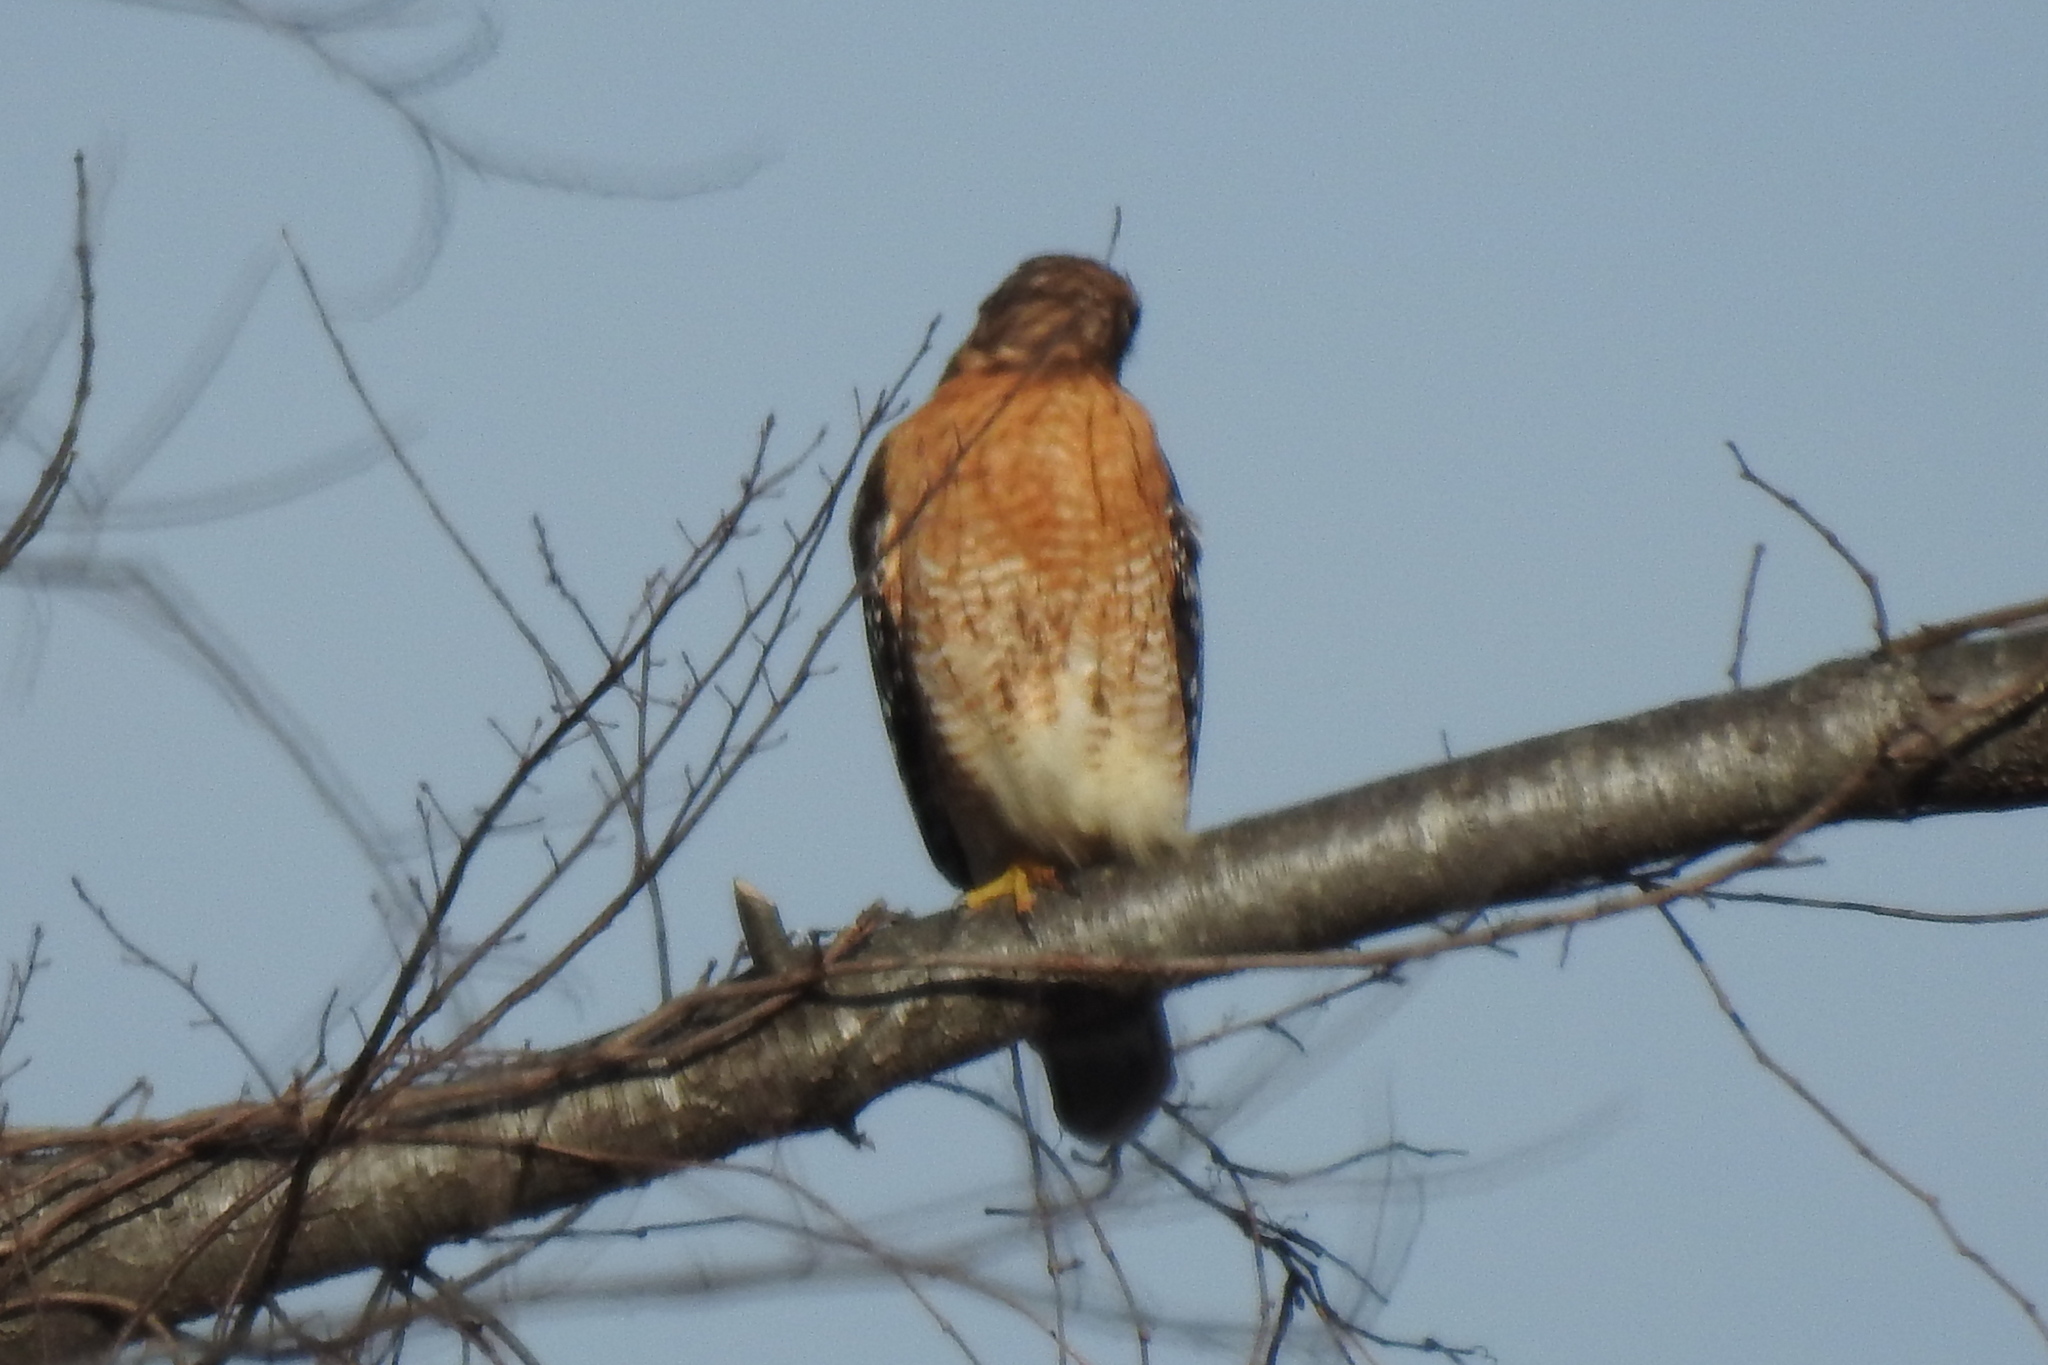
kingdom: Animalia
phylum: Chordata
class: Aves
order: Accipitriformes
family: Accipitridae
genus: Buteo
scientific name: Buteo lineatus
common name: Red-shouldered hawk
